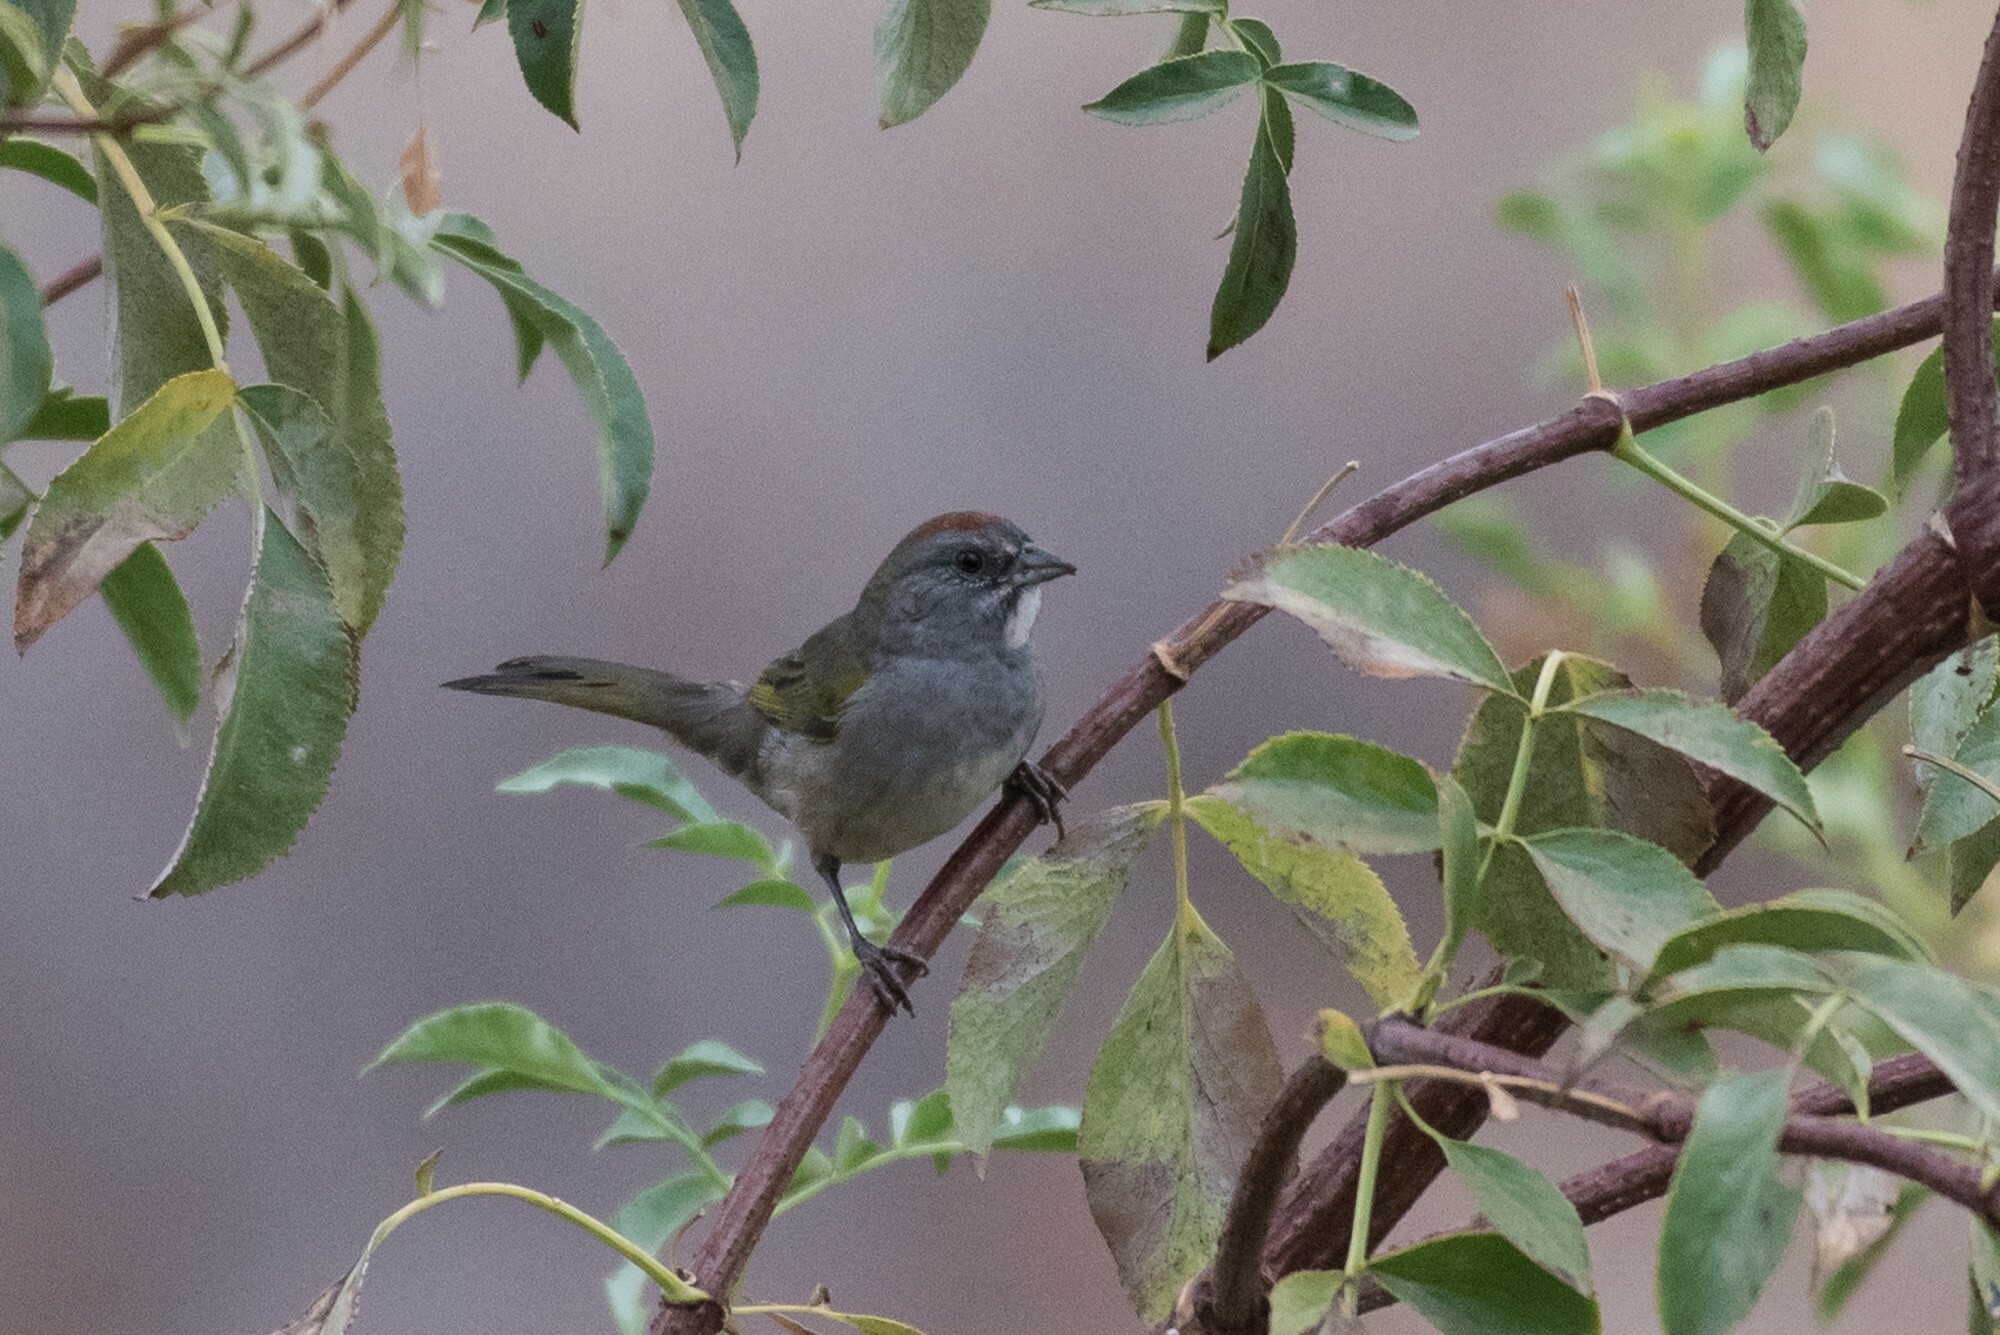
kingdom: Animalia
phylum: Chordata
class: Aves
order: Passeriformes
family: Passerellidae
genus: Pipilo
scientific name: Pipilo chlorurus
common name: Green-tailed towhee
